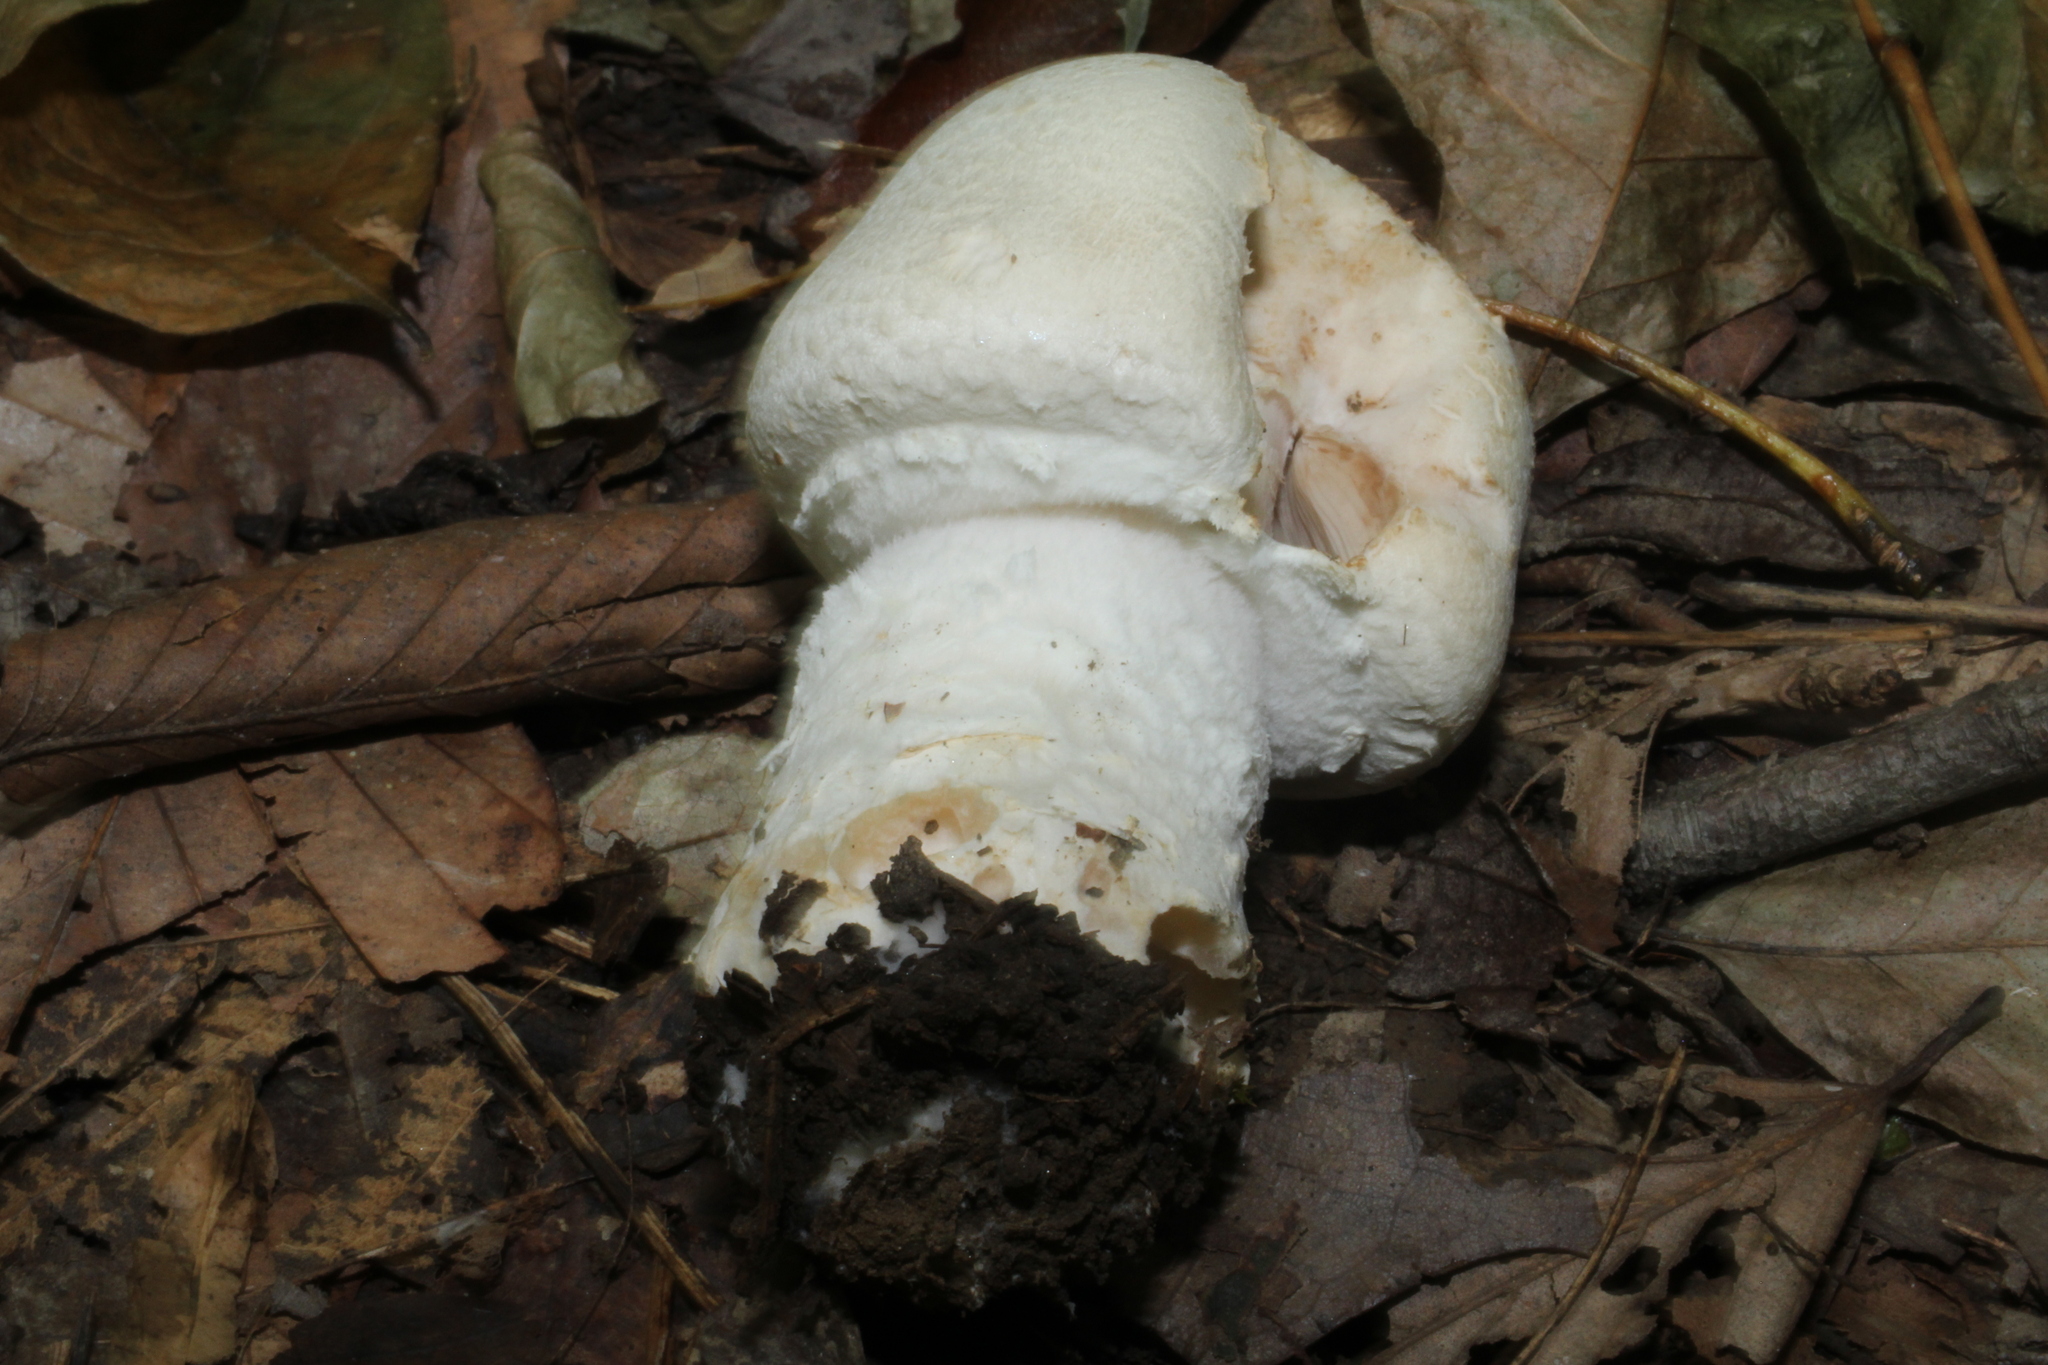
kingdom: Fungi
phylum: Basidiomycota
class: Agaricomycetes
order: Agaricales
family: Agaricaceae
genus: Agaricus
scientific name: Agaricus crocodilinus
